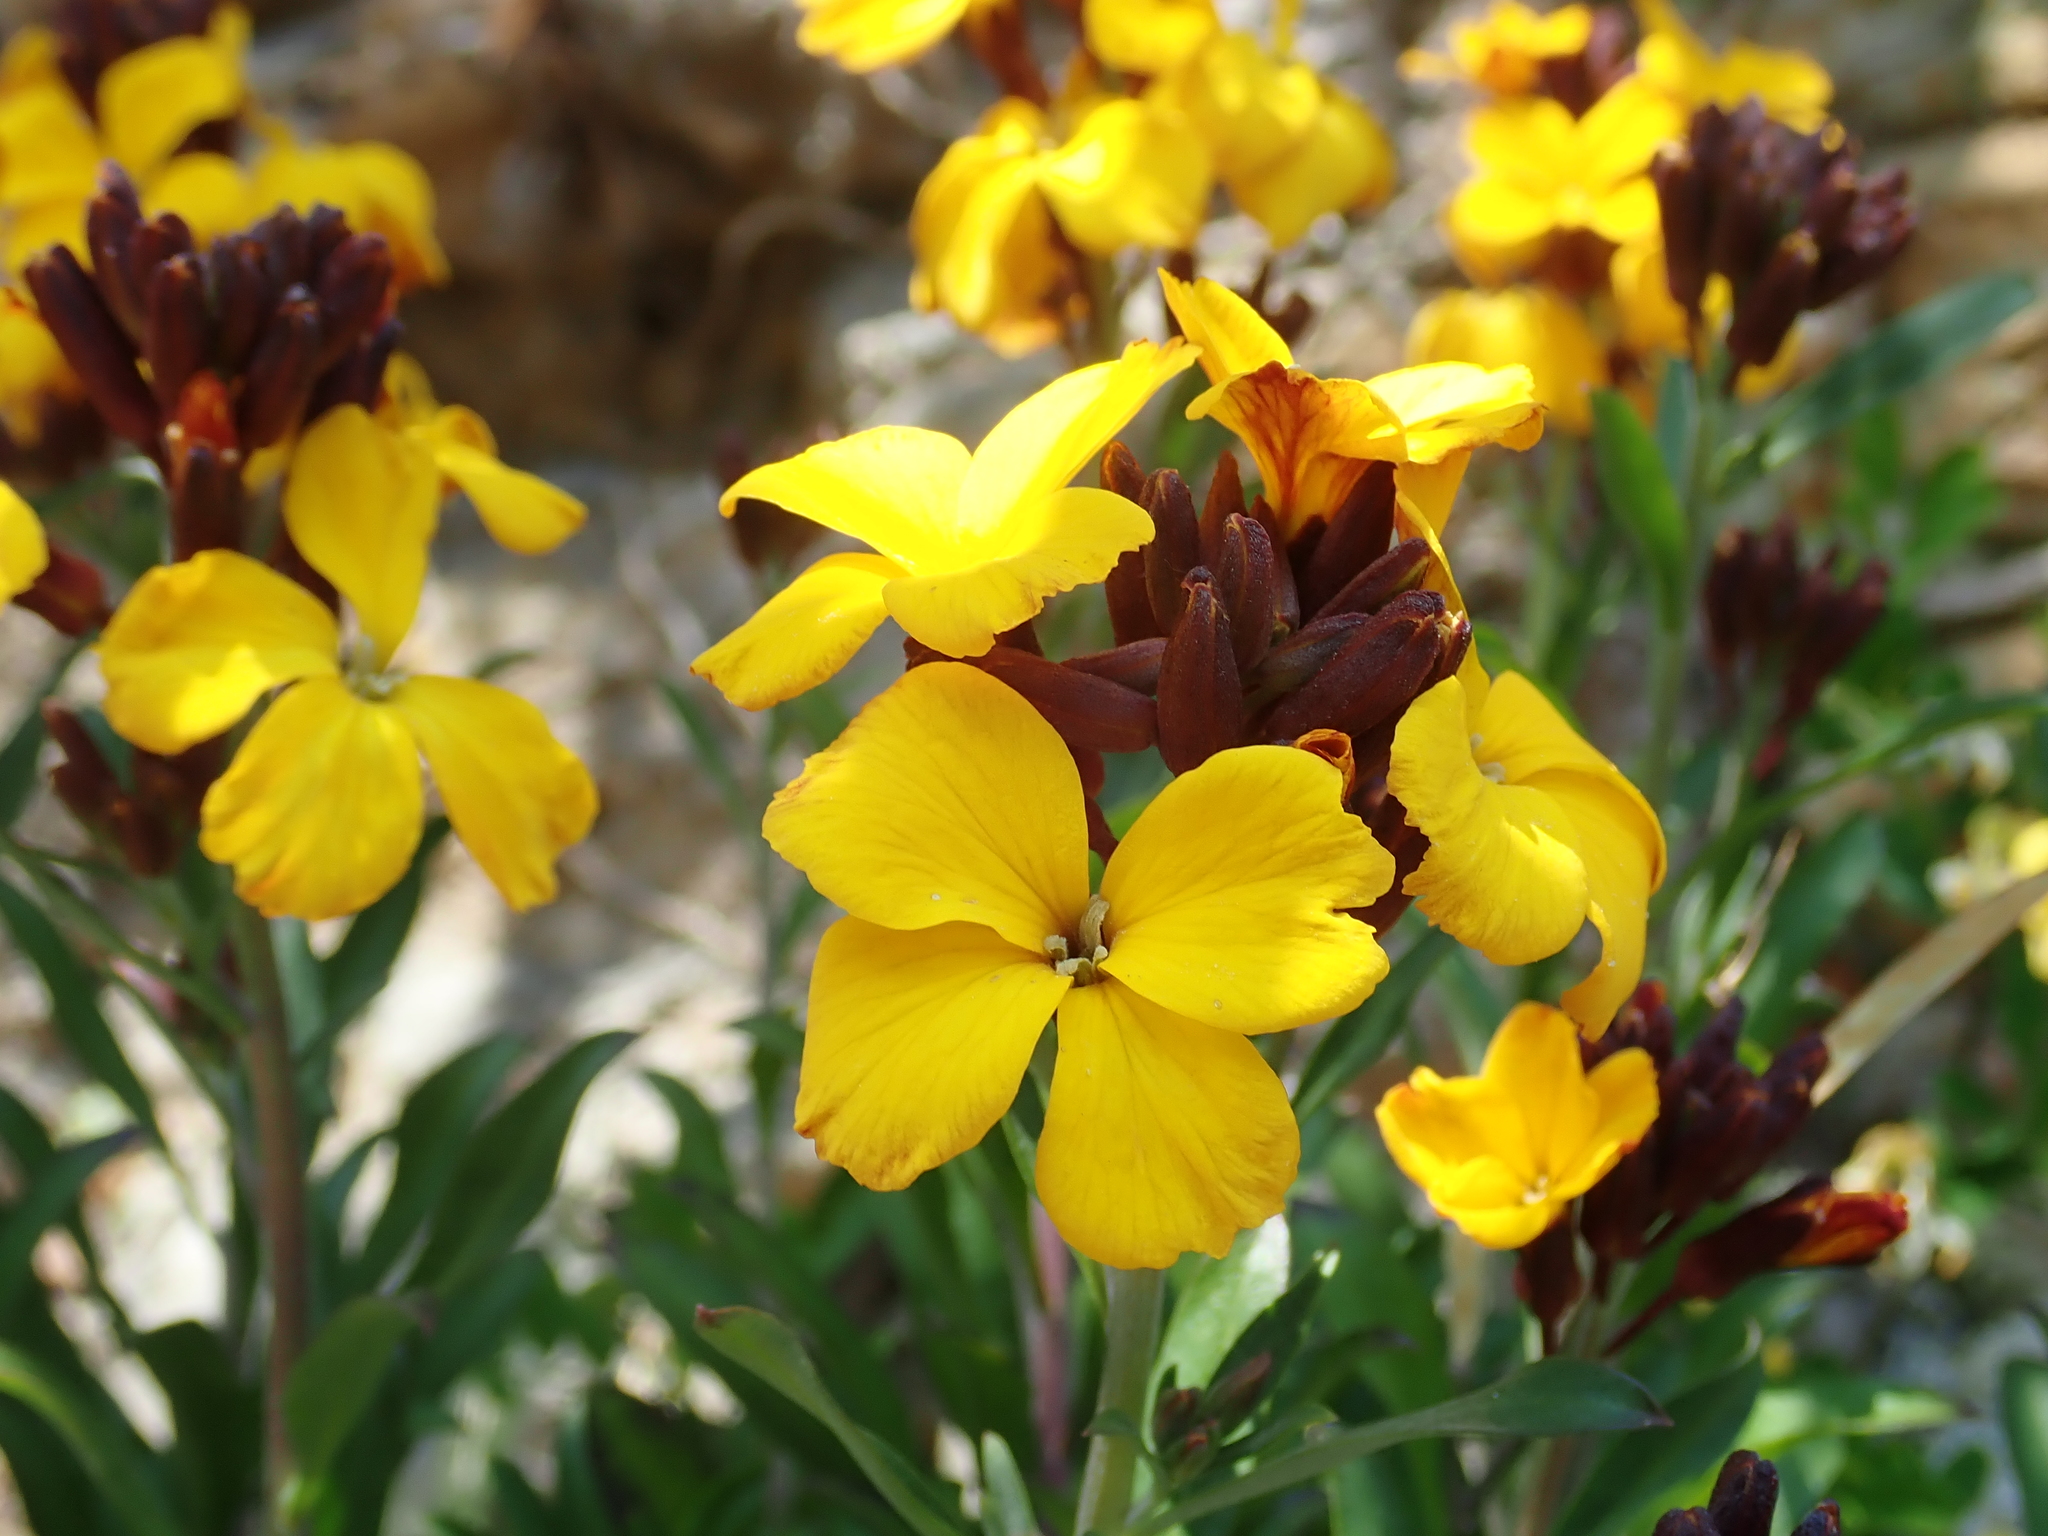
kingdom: Plantae
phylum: Tracheophyta
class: Magnoliopsida
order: Brassicales
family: Brassicaceae
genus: Erysimum
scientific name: Erysimum cheiri
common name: Wallflower
